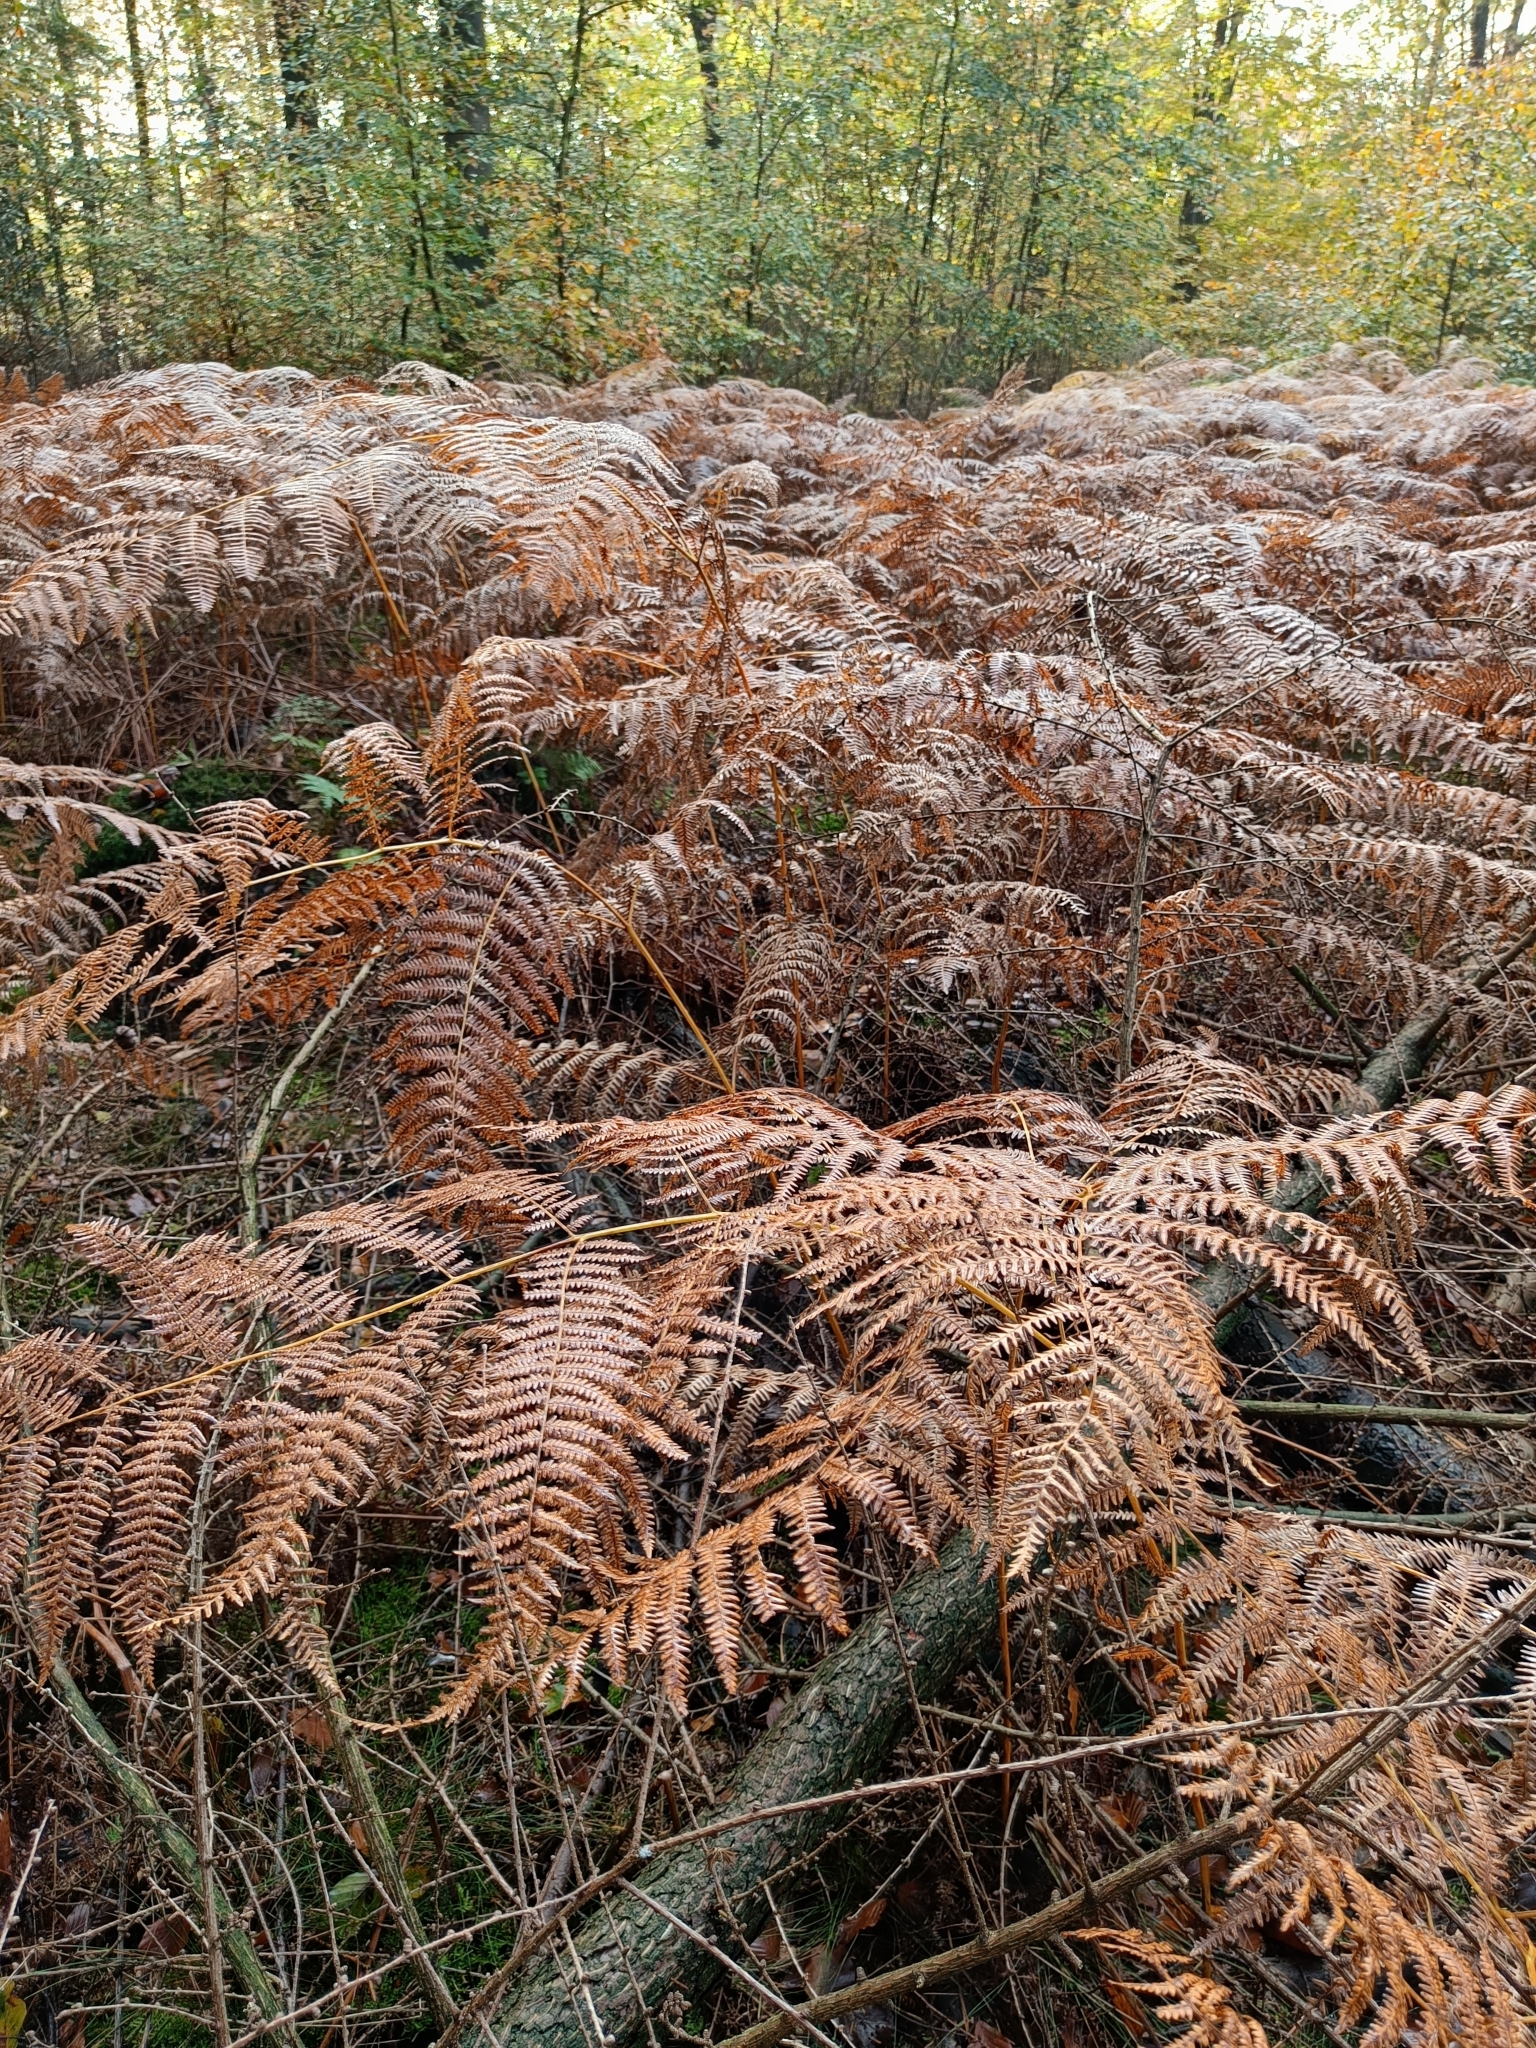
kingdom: Plantae
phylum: Tracheophyta
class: Polypodiopsida
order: Polypodiales
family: Dennstaedtiaceae
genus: Pteridium
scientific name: Pteridium aquilinum
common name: Bracken
